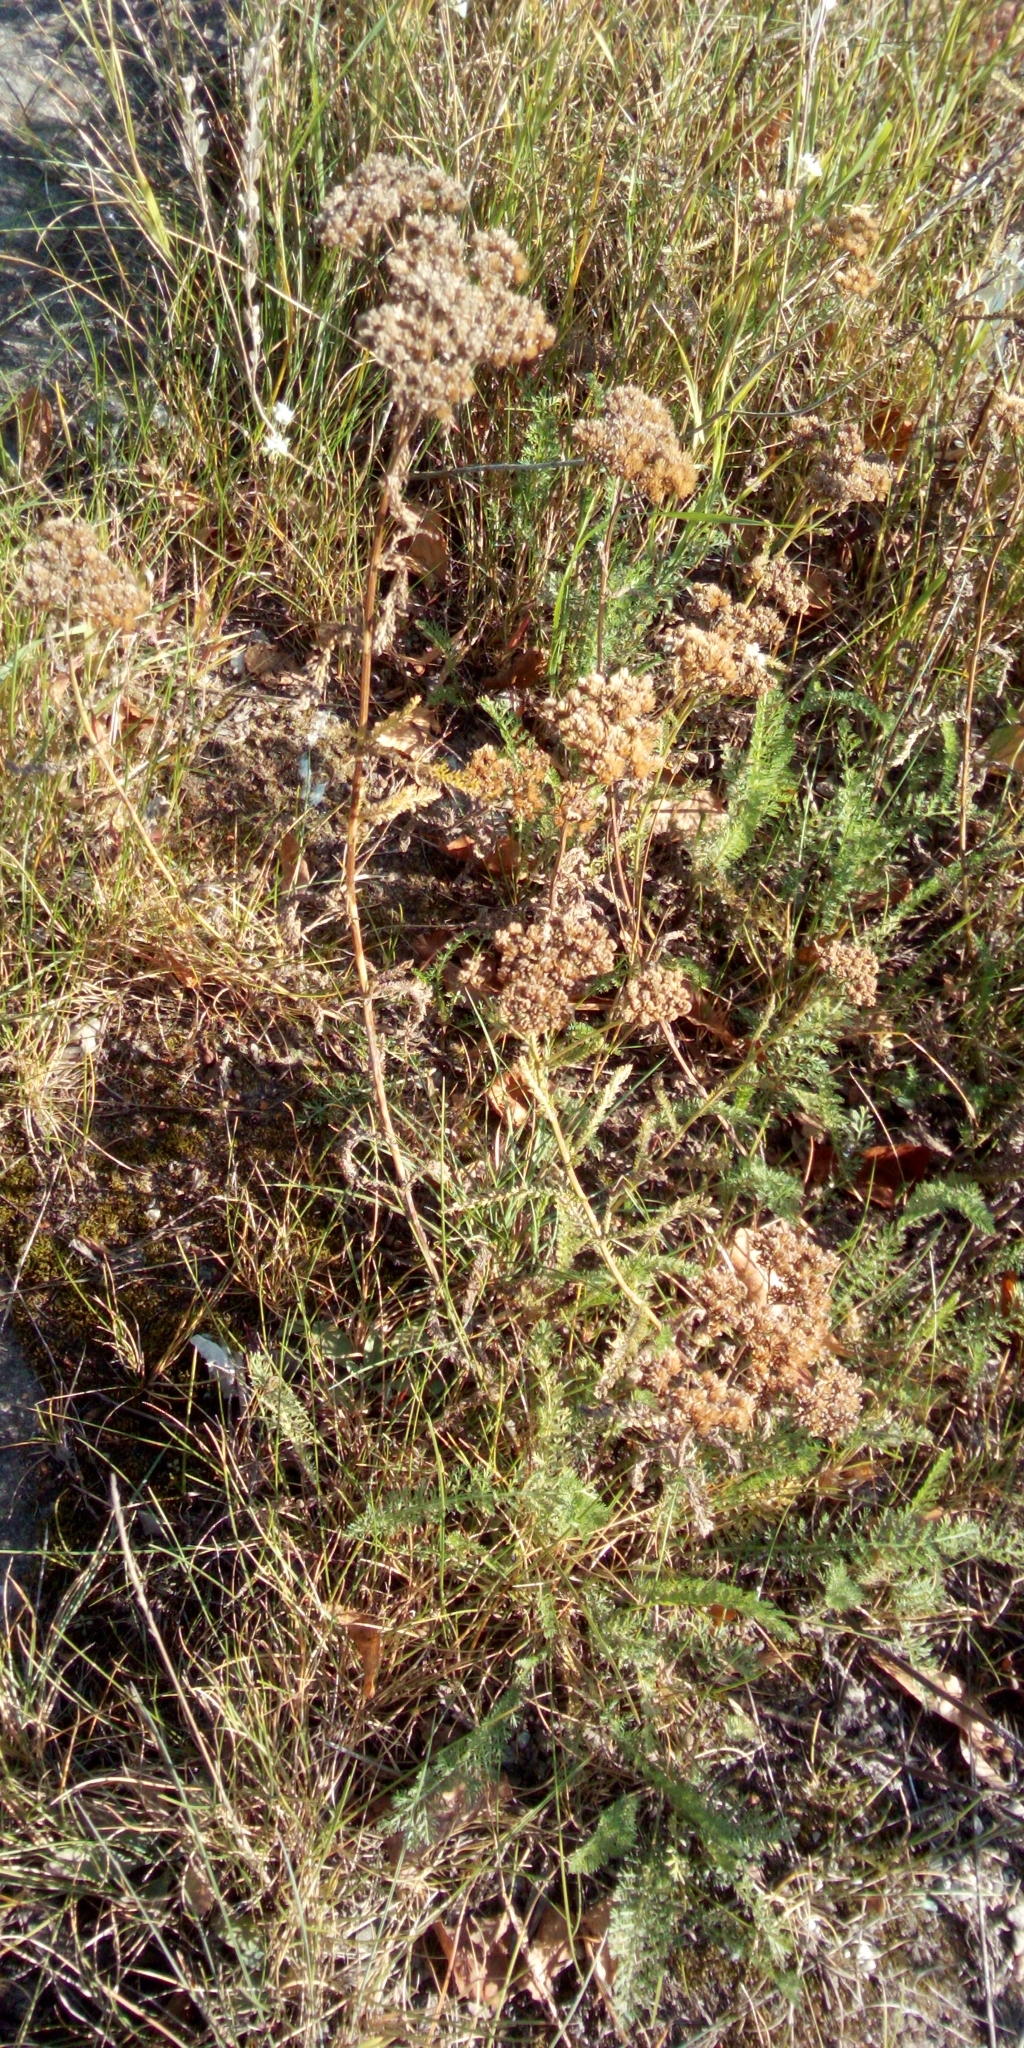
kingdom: Plantae
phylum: Tracheophyta
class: Magnoliopsida
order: Asterales
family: Asteraceae
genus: Achillea
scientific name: Achillea millefolium
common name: Yarrow
